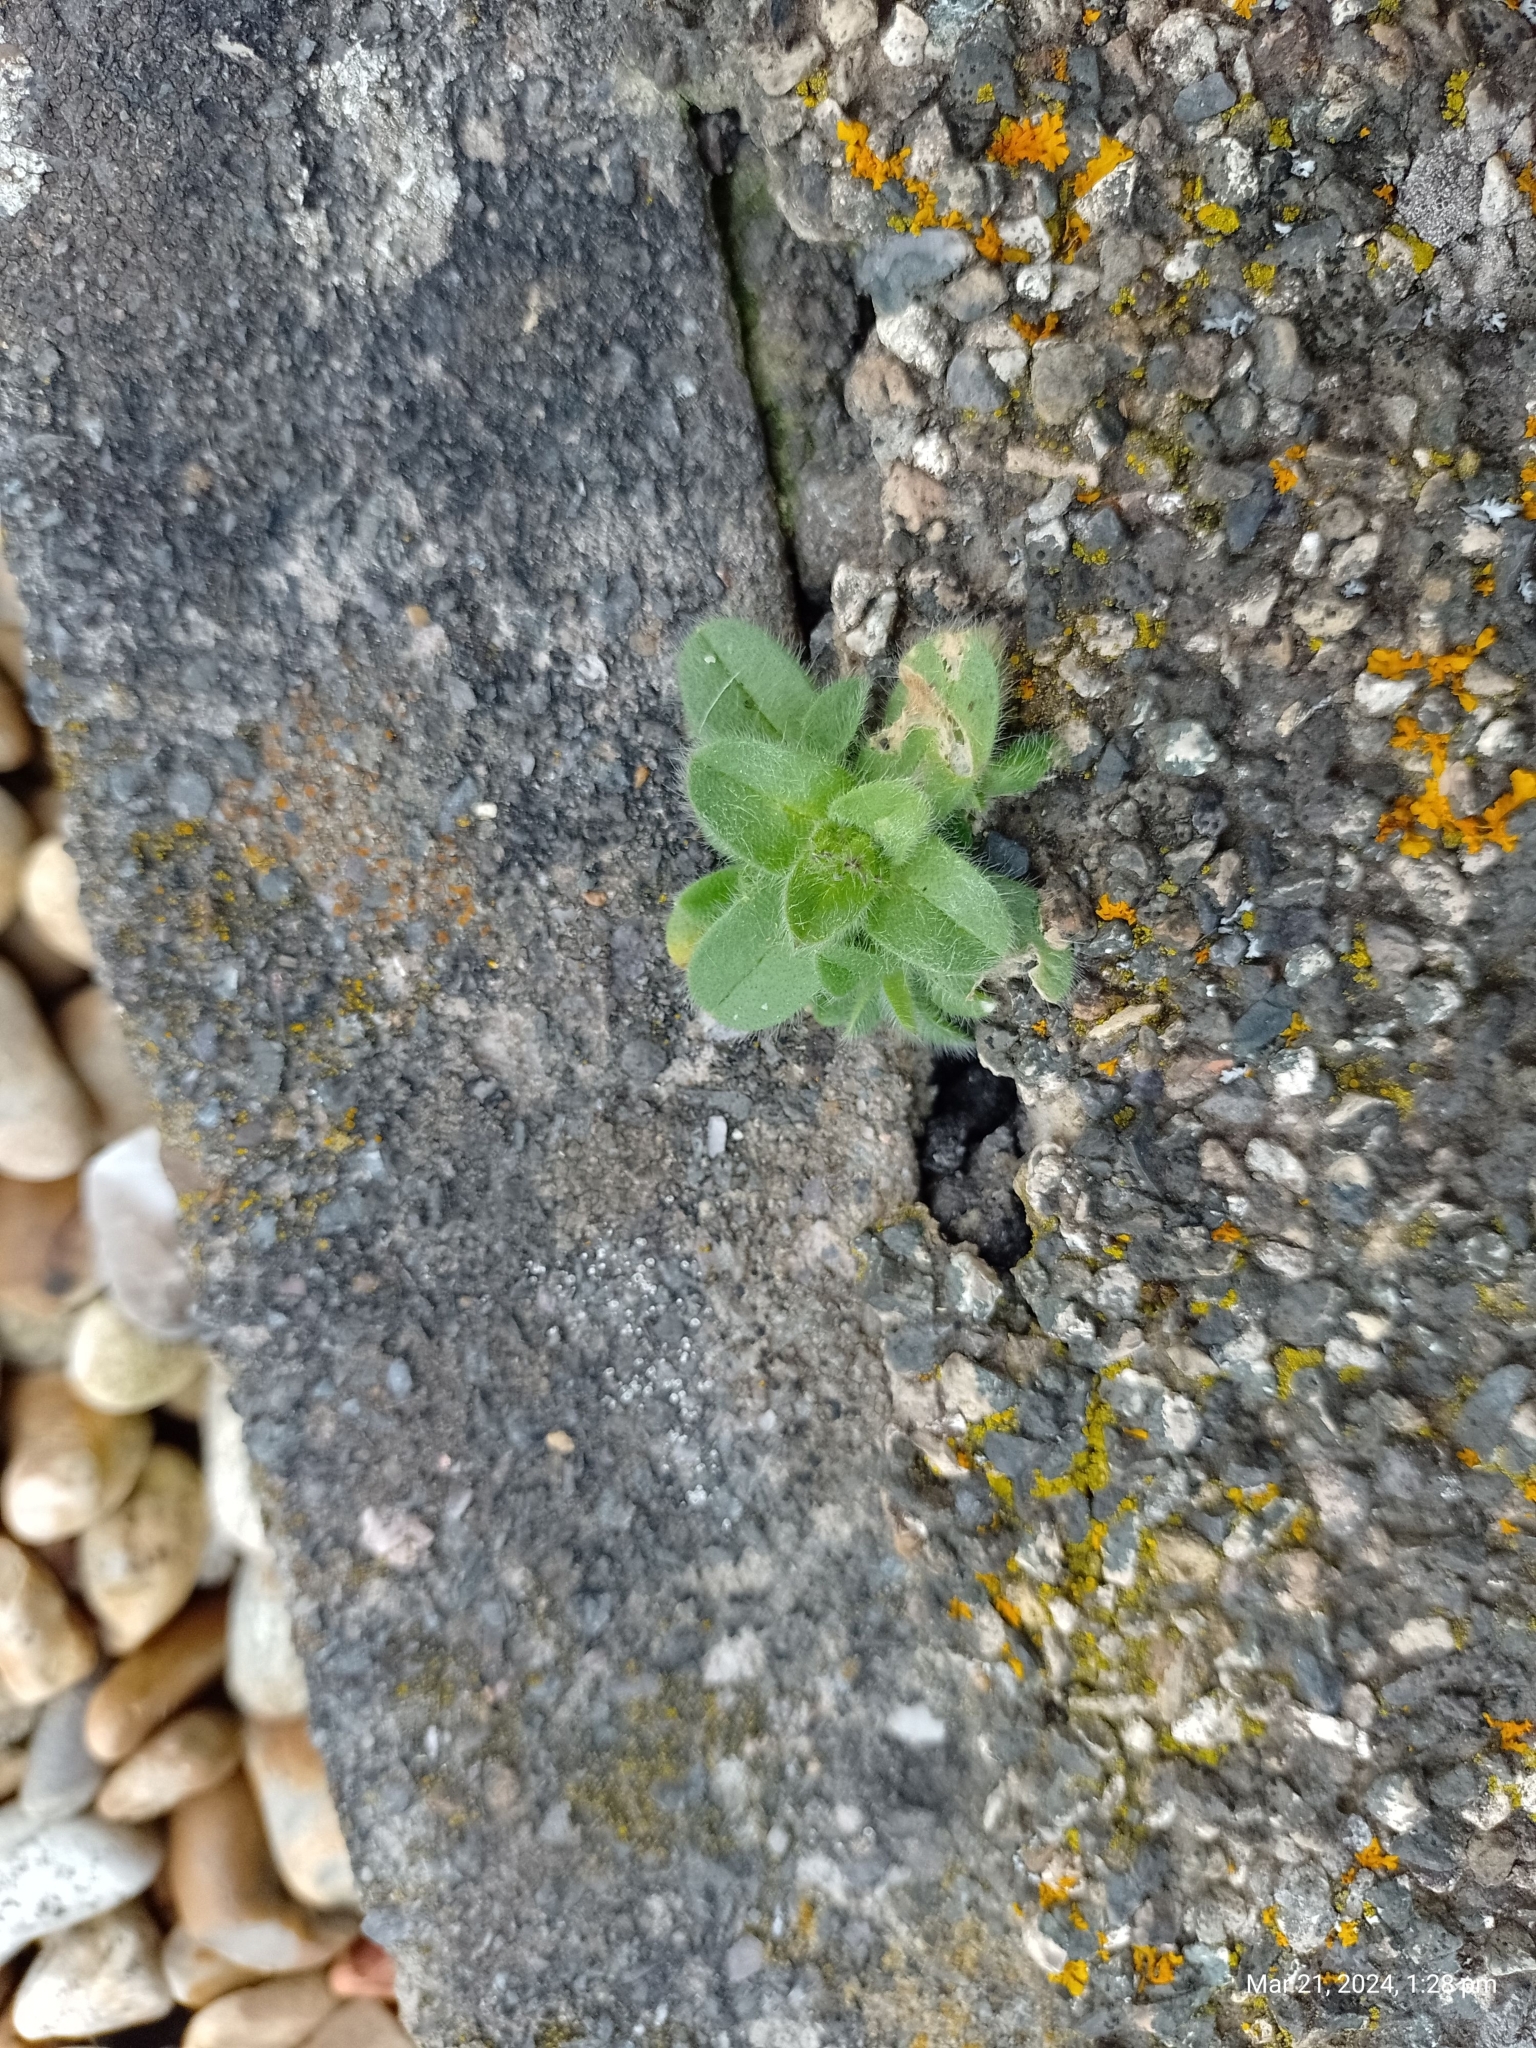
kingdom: Plantae
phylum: Tracheophyta
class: Magnoliopsida
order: Caryophyllales
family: Caryophyllaceae
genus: Cerastium
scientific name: Cerastium glomeratum
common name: Sticky chickweed
